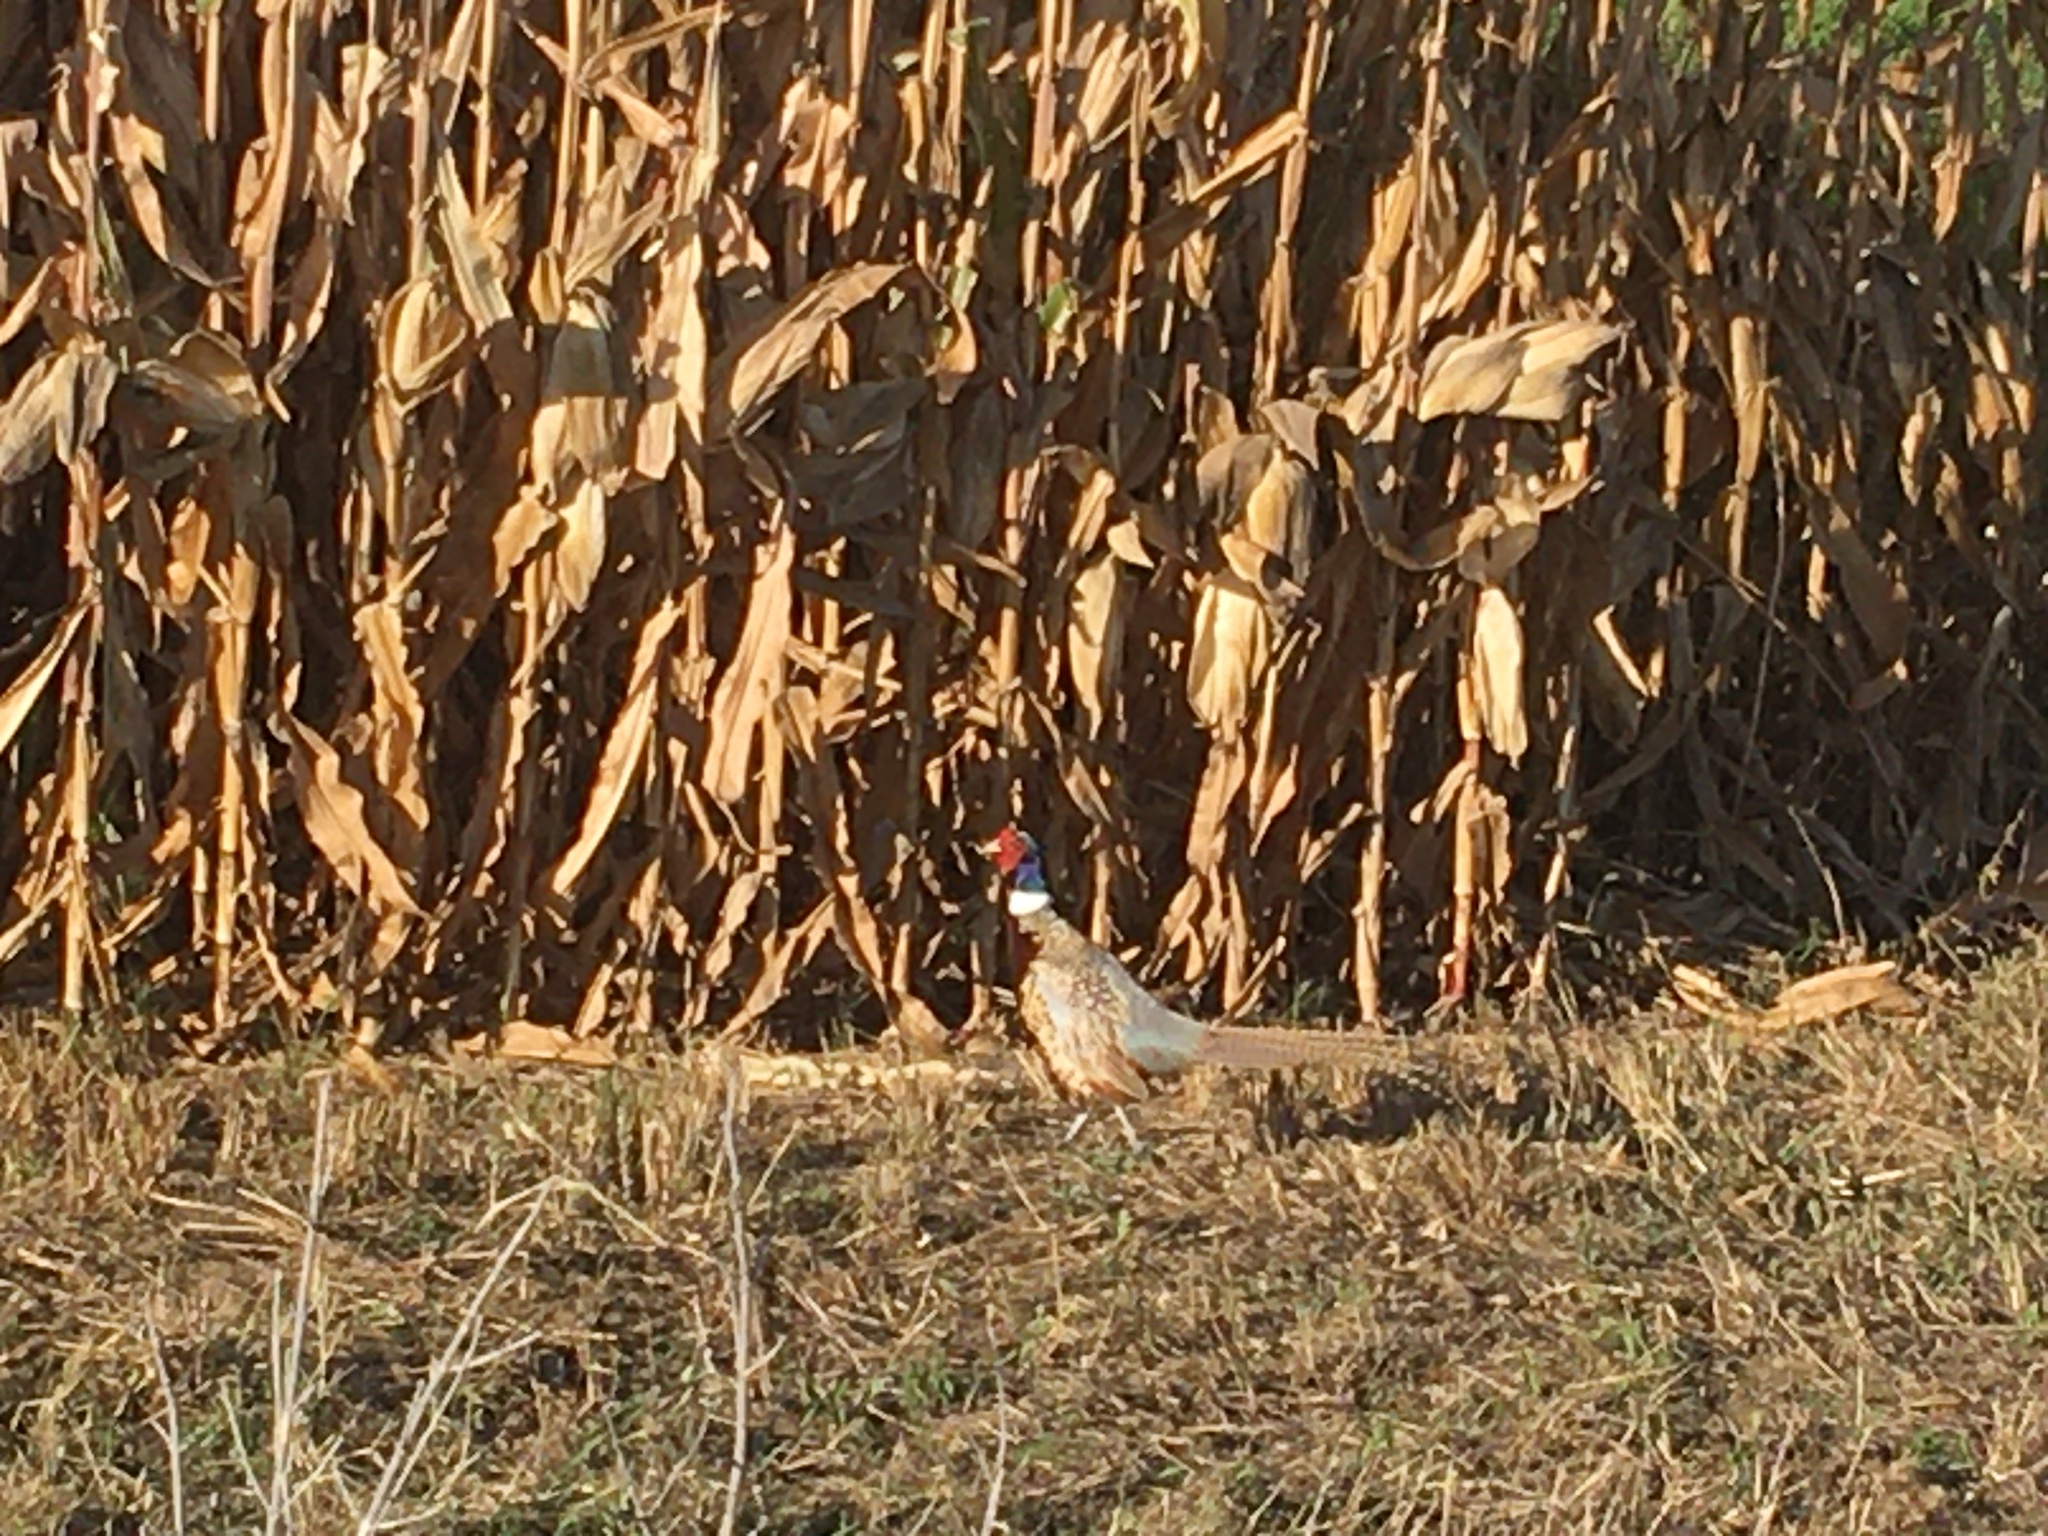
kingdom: Animalia
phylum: Chordata
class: Aves
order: Galliformes
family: Phasianidae
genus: Phasianus
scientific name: Phasianus colchicus
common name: Common pheasant
